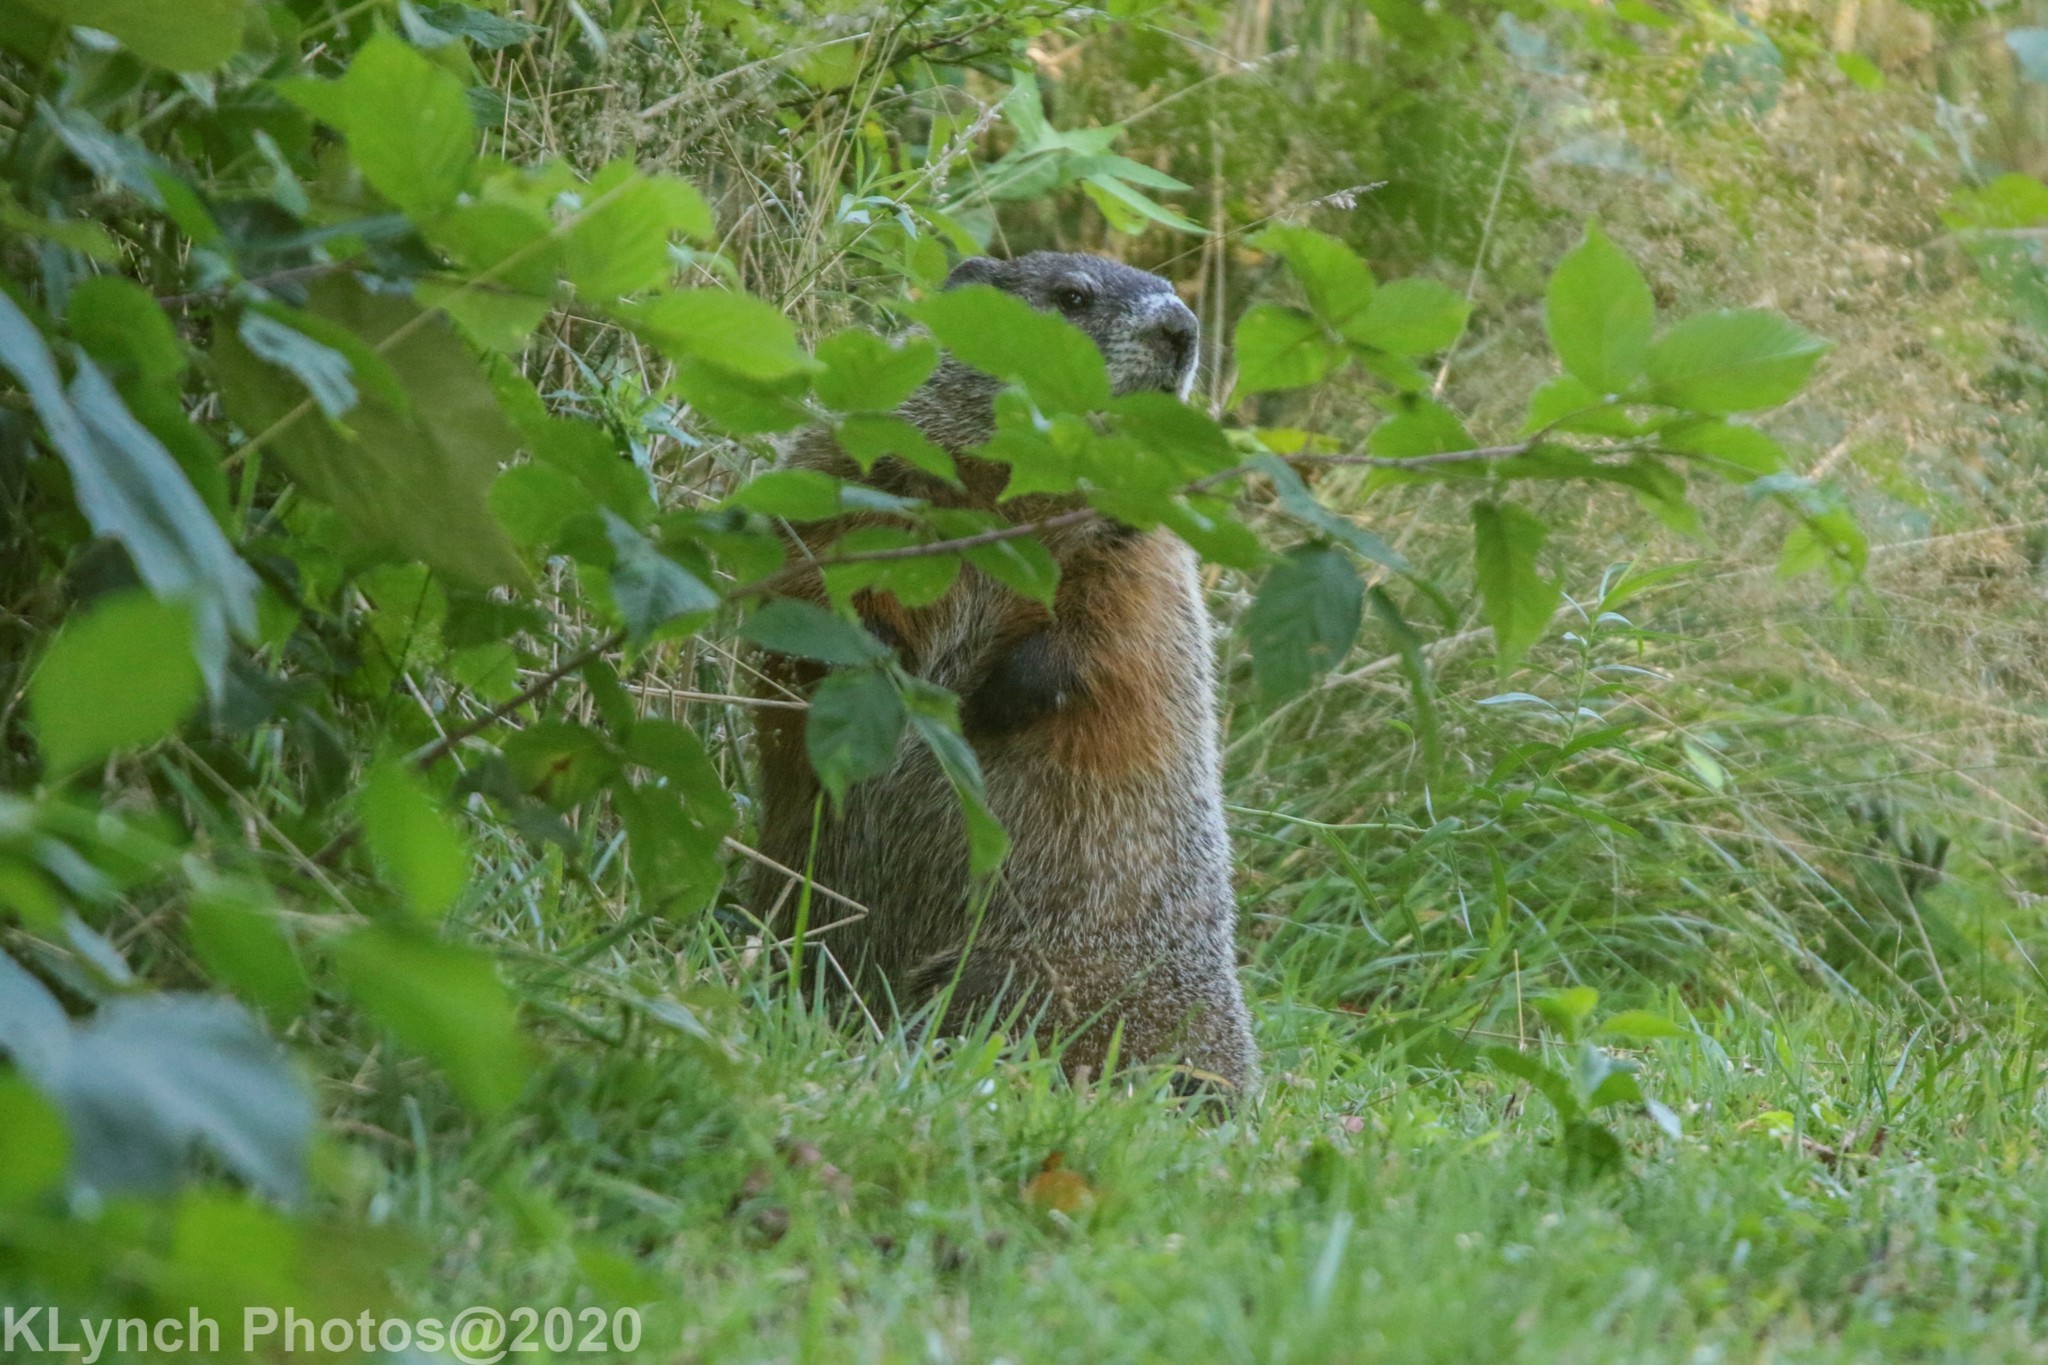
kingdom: Animalia
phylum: Chordata
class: Mammalia
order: Rodentia
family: Sciuridae
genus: Marmota
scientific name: Marmota monax
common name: Groundhog
